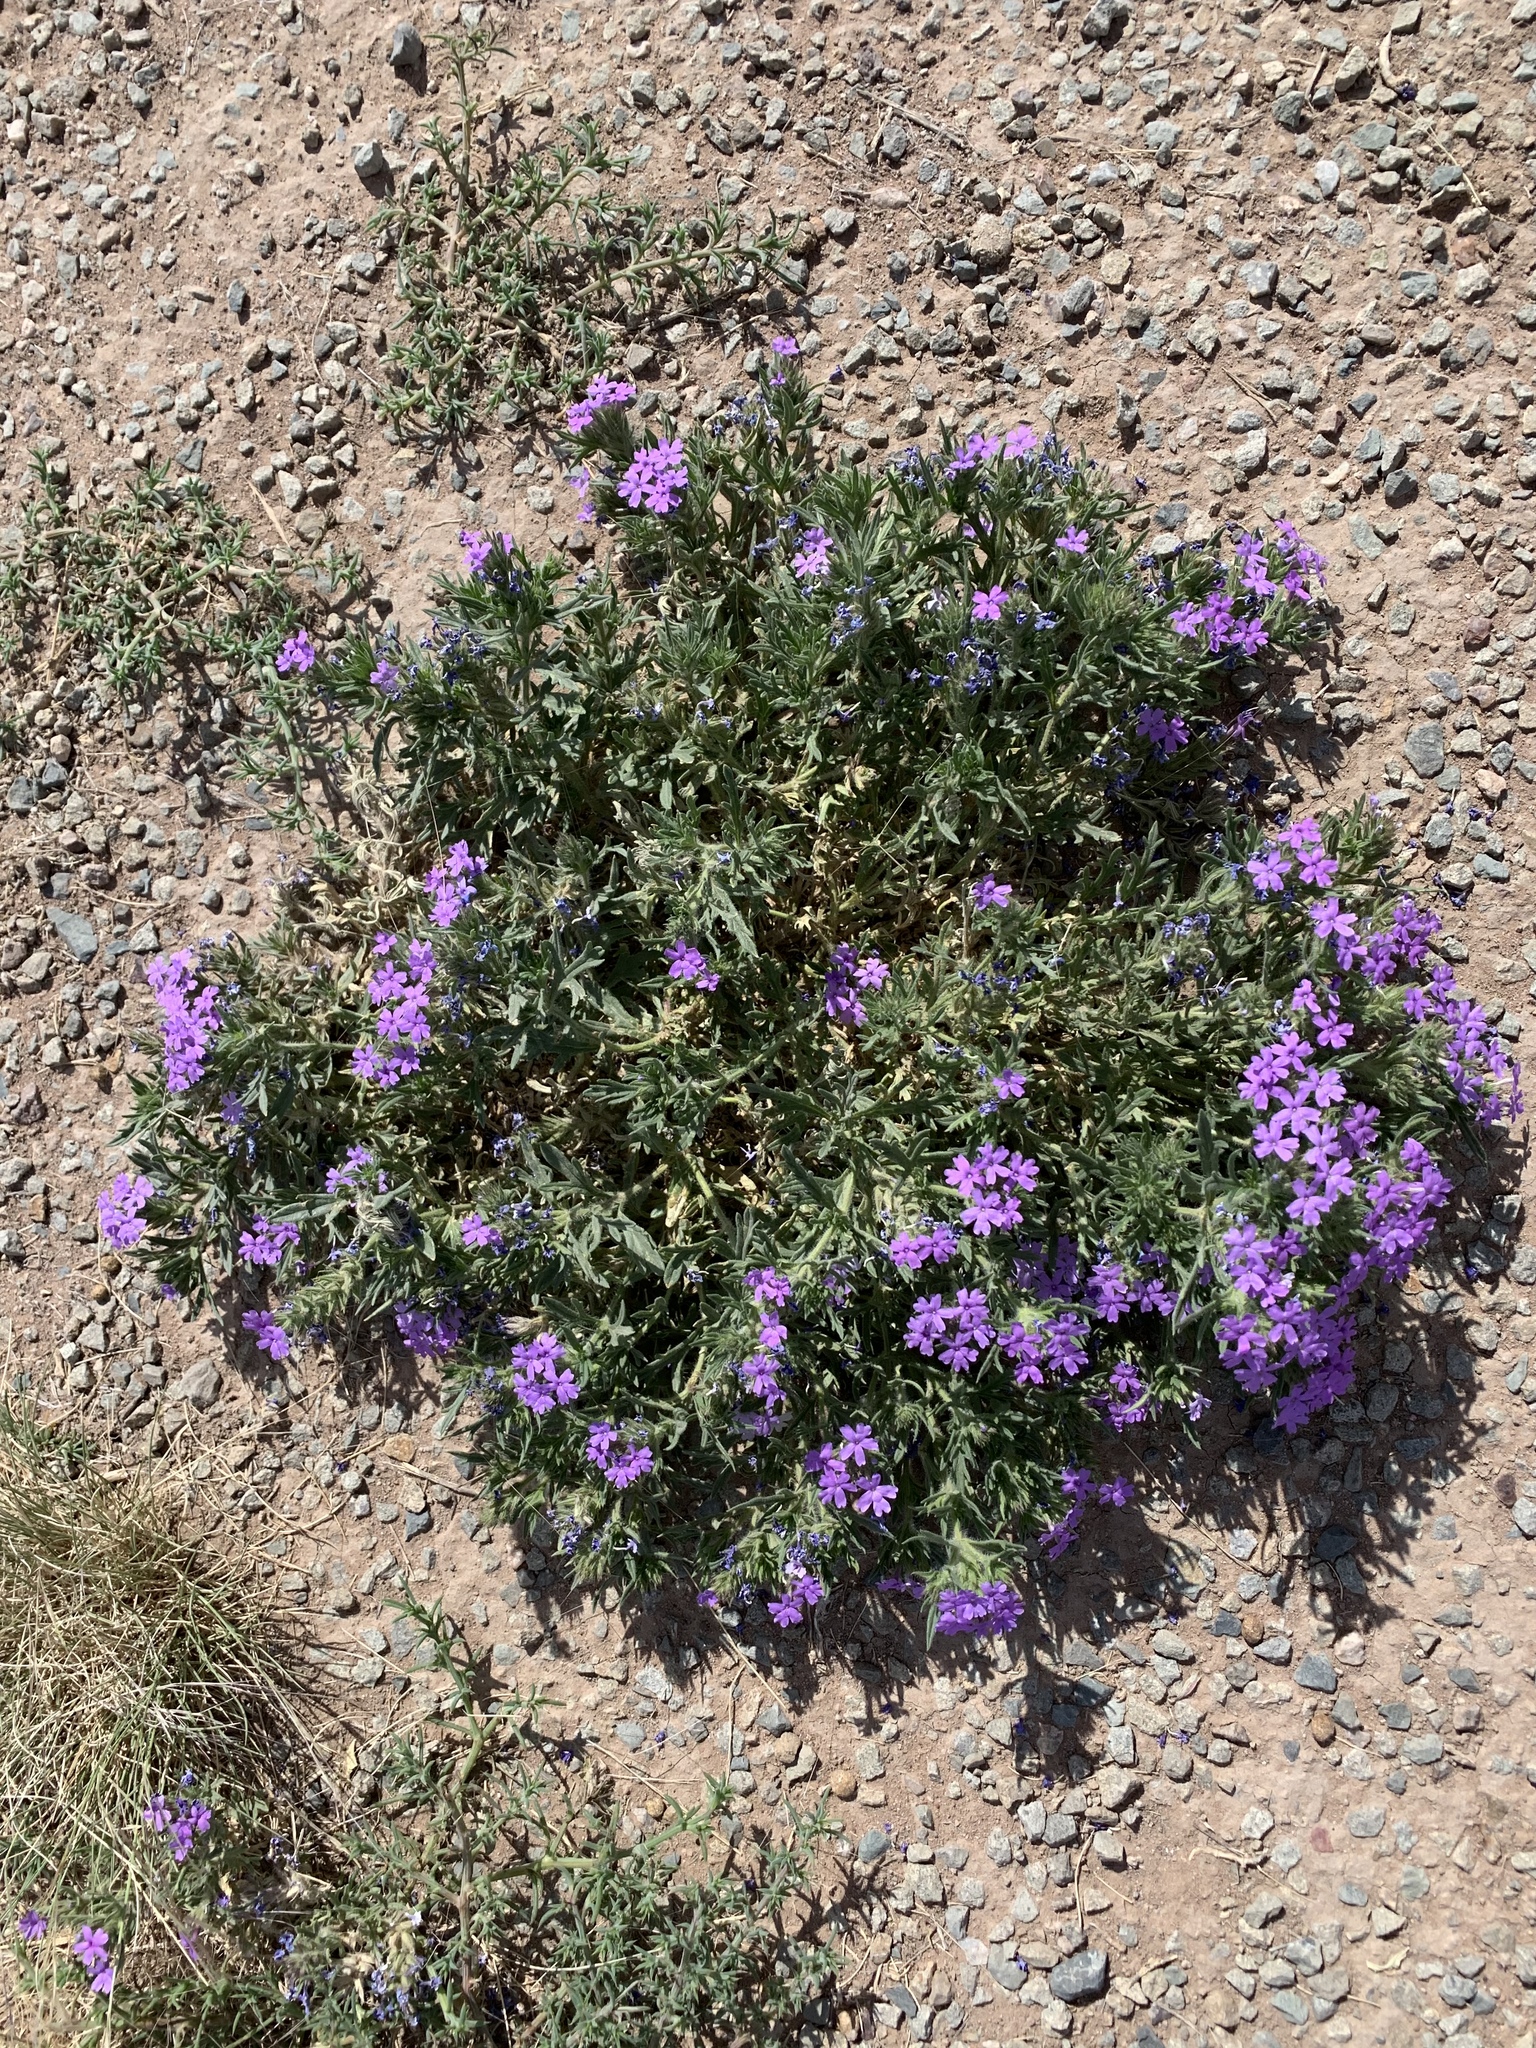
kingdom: Plantae
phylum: Tracheophyta
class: Magnoliopsida
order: Lamiales
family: Verbenaceae
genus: Verbena
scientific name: Verbena bipinnatifida
